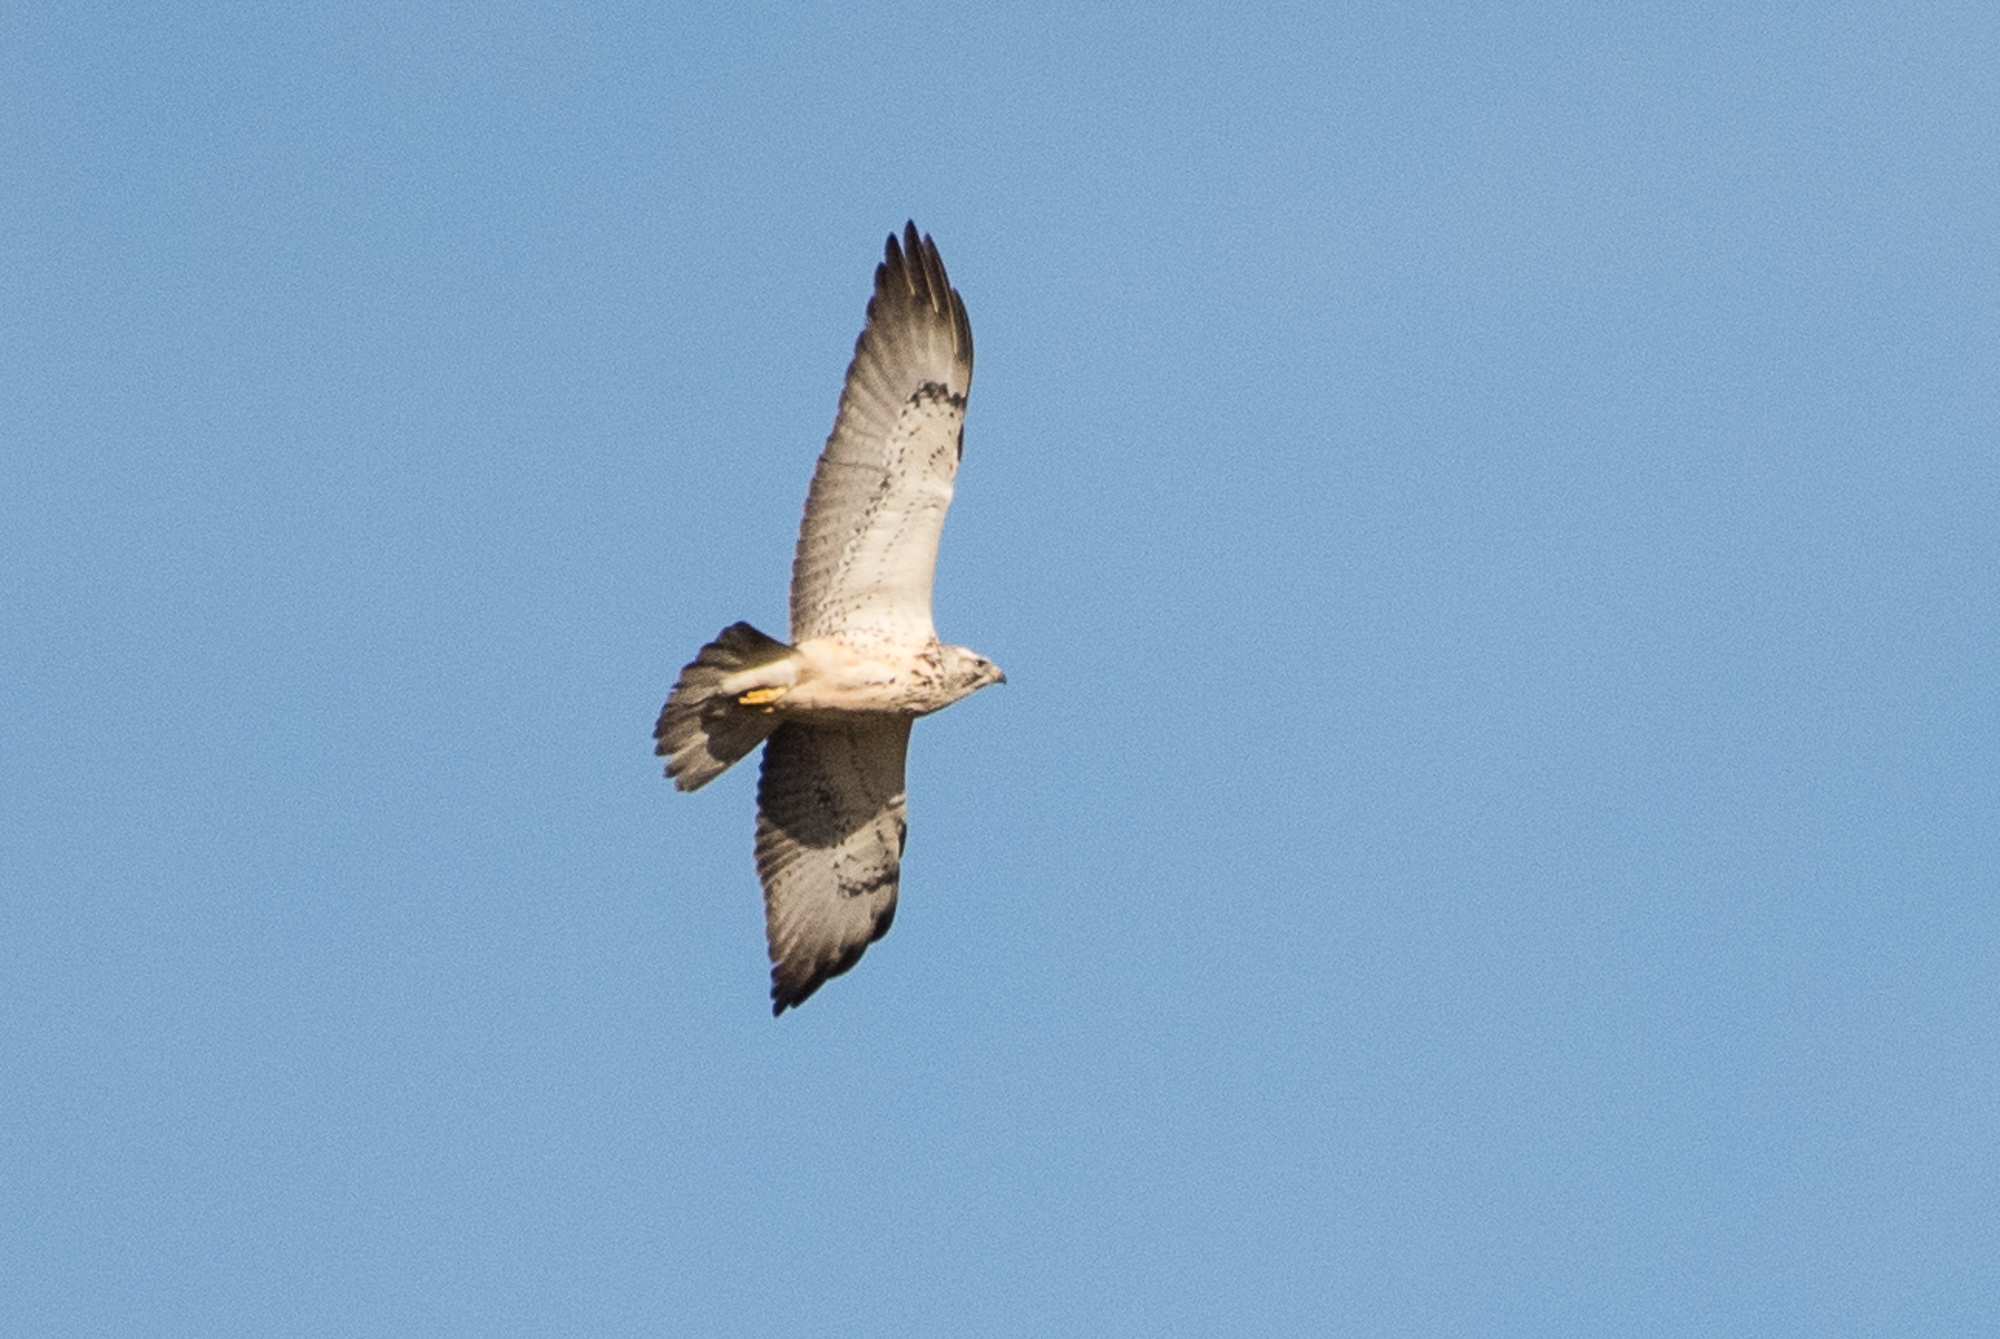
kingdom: Animalia
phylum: Chordata
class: Aves
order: Accipitriformes
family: Accipitridae
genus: Buteo
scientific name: Buteo swainsoni
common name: Swainson's hawk
